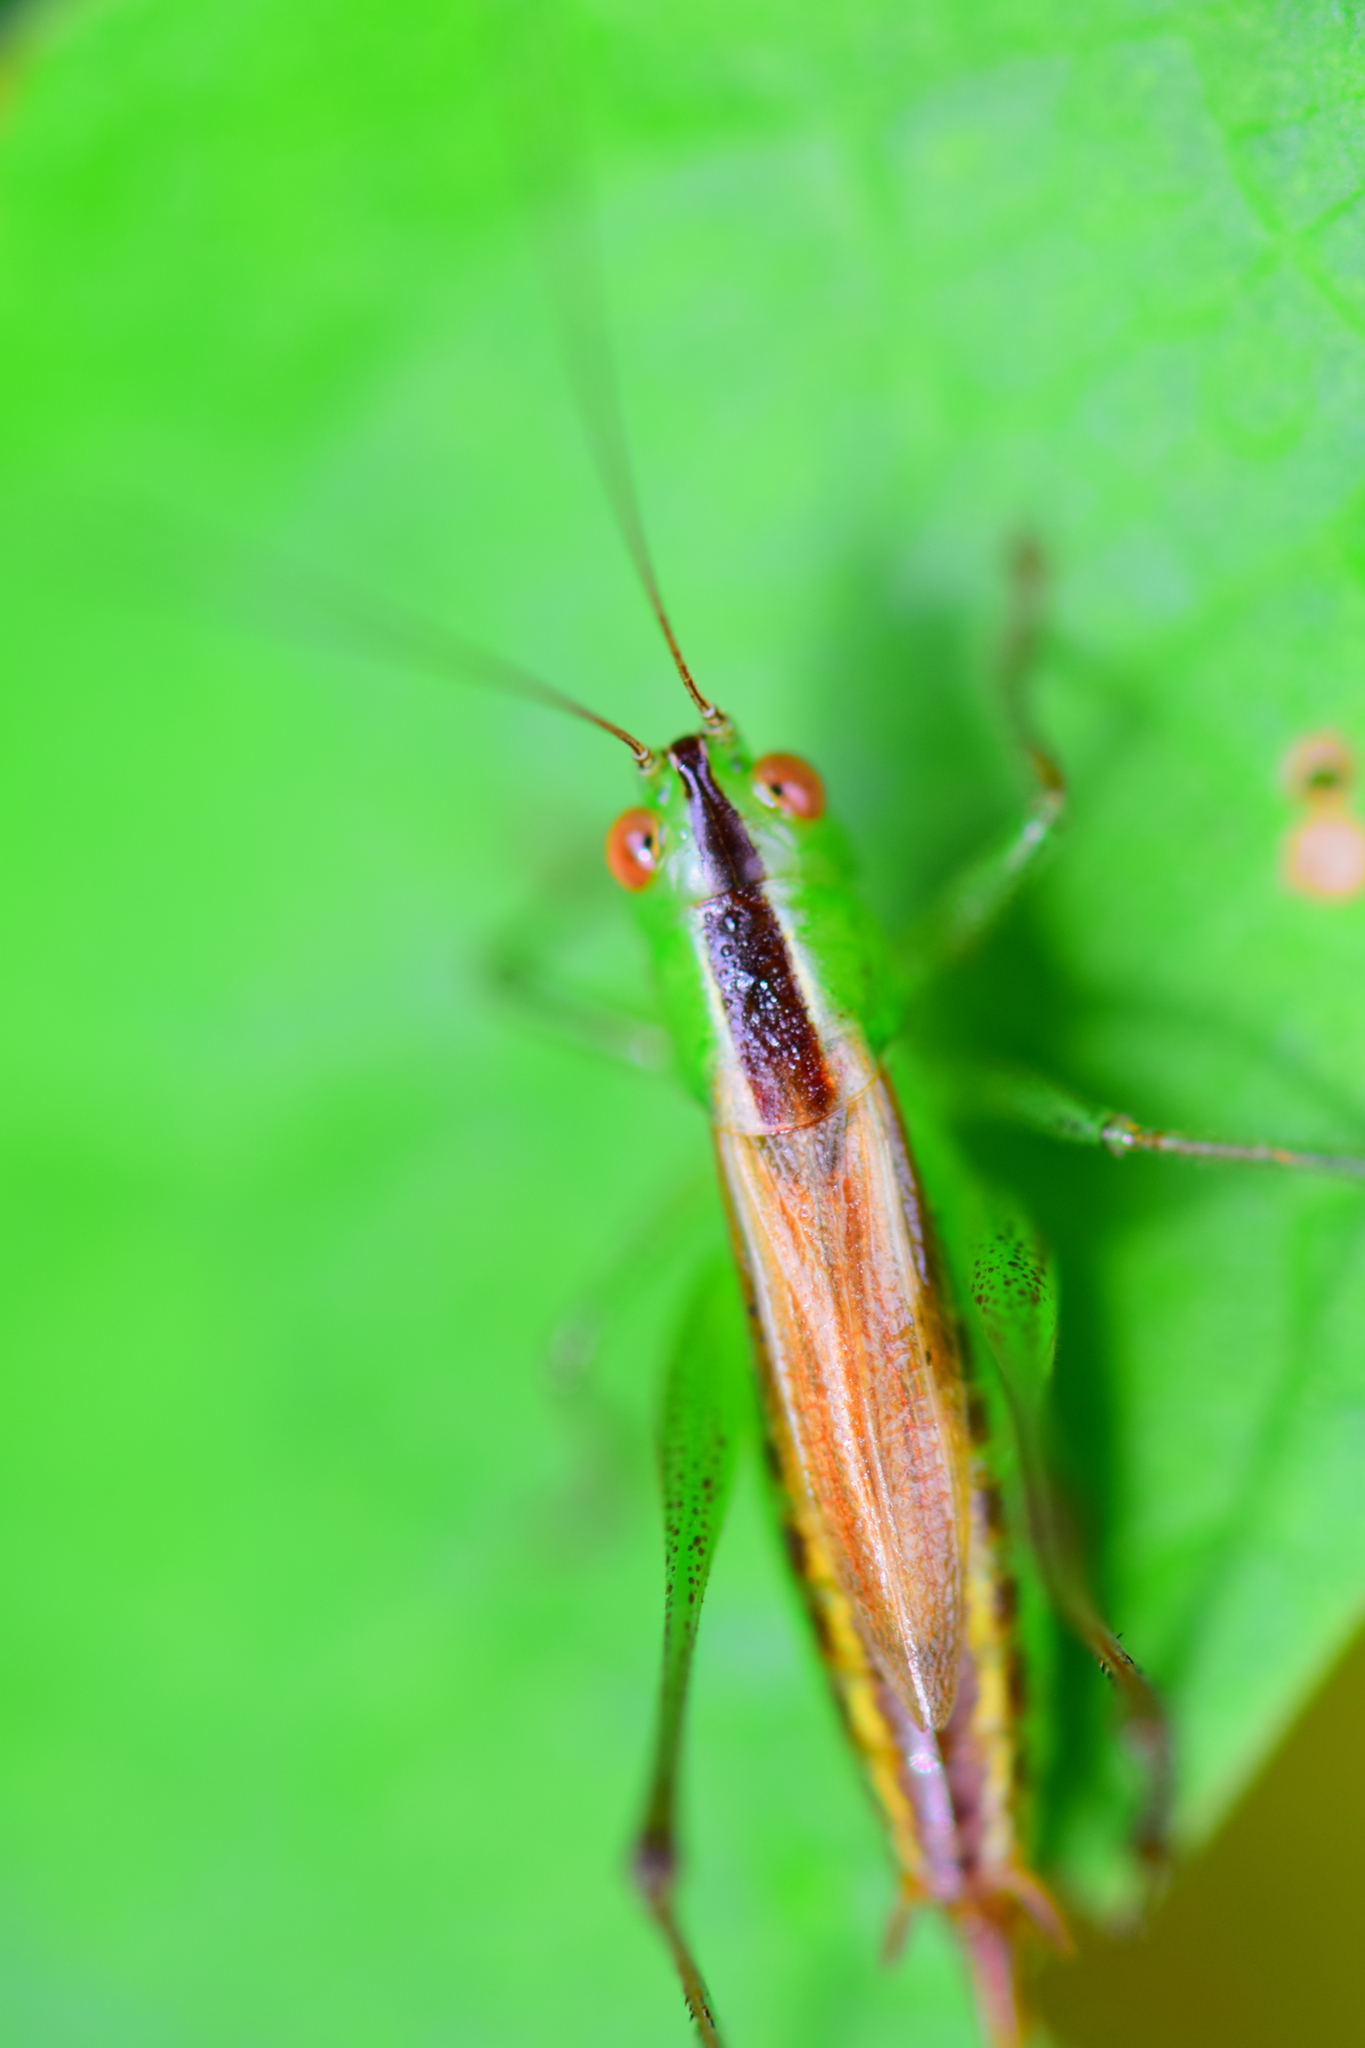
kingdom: Animalia
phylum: Arthropoda
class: Insecta
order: Orthoptera
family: Tettigoniidae
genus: Conocephalus
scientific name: Conocephalus brevipennis
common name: Short-winged meadow katydid
